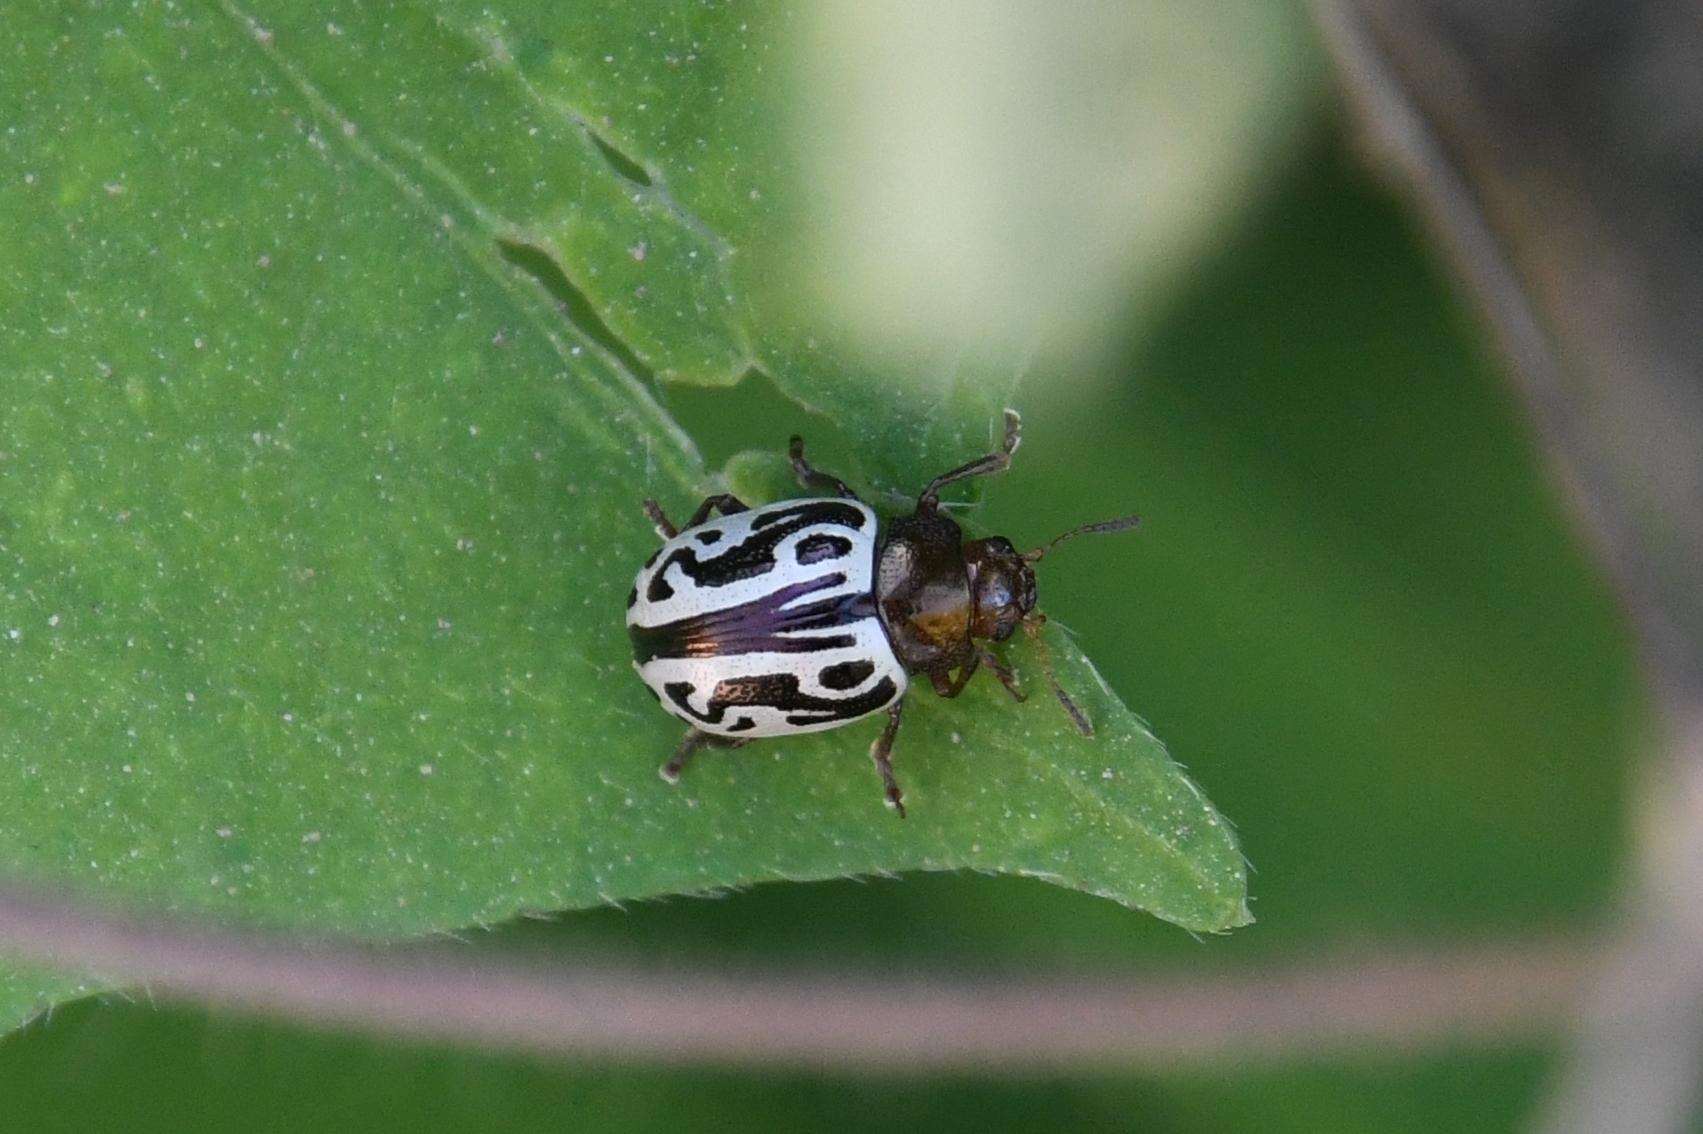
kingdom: Animalia
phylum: Arthropoda
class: Insecta
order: Coleoptera
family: Chrysomelidae
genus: Calligrapha
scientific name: Calligrapha
